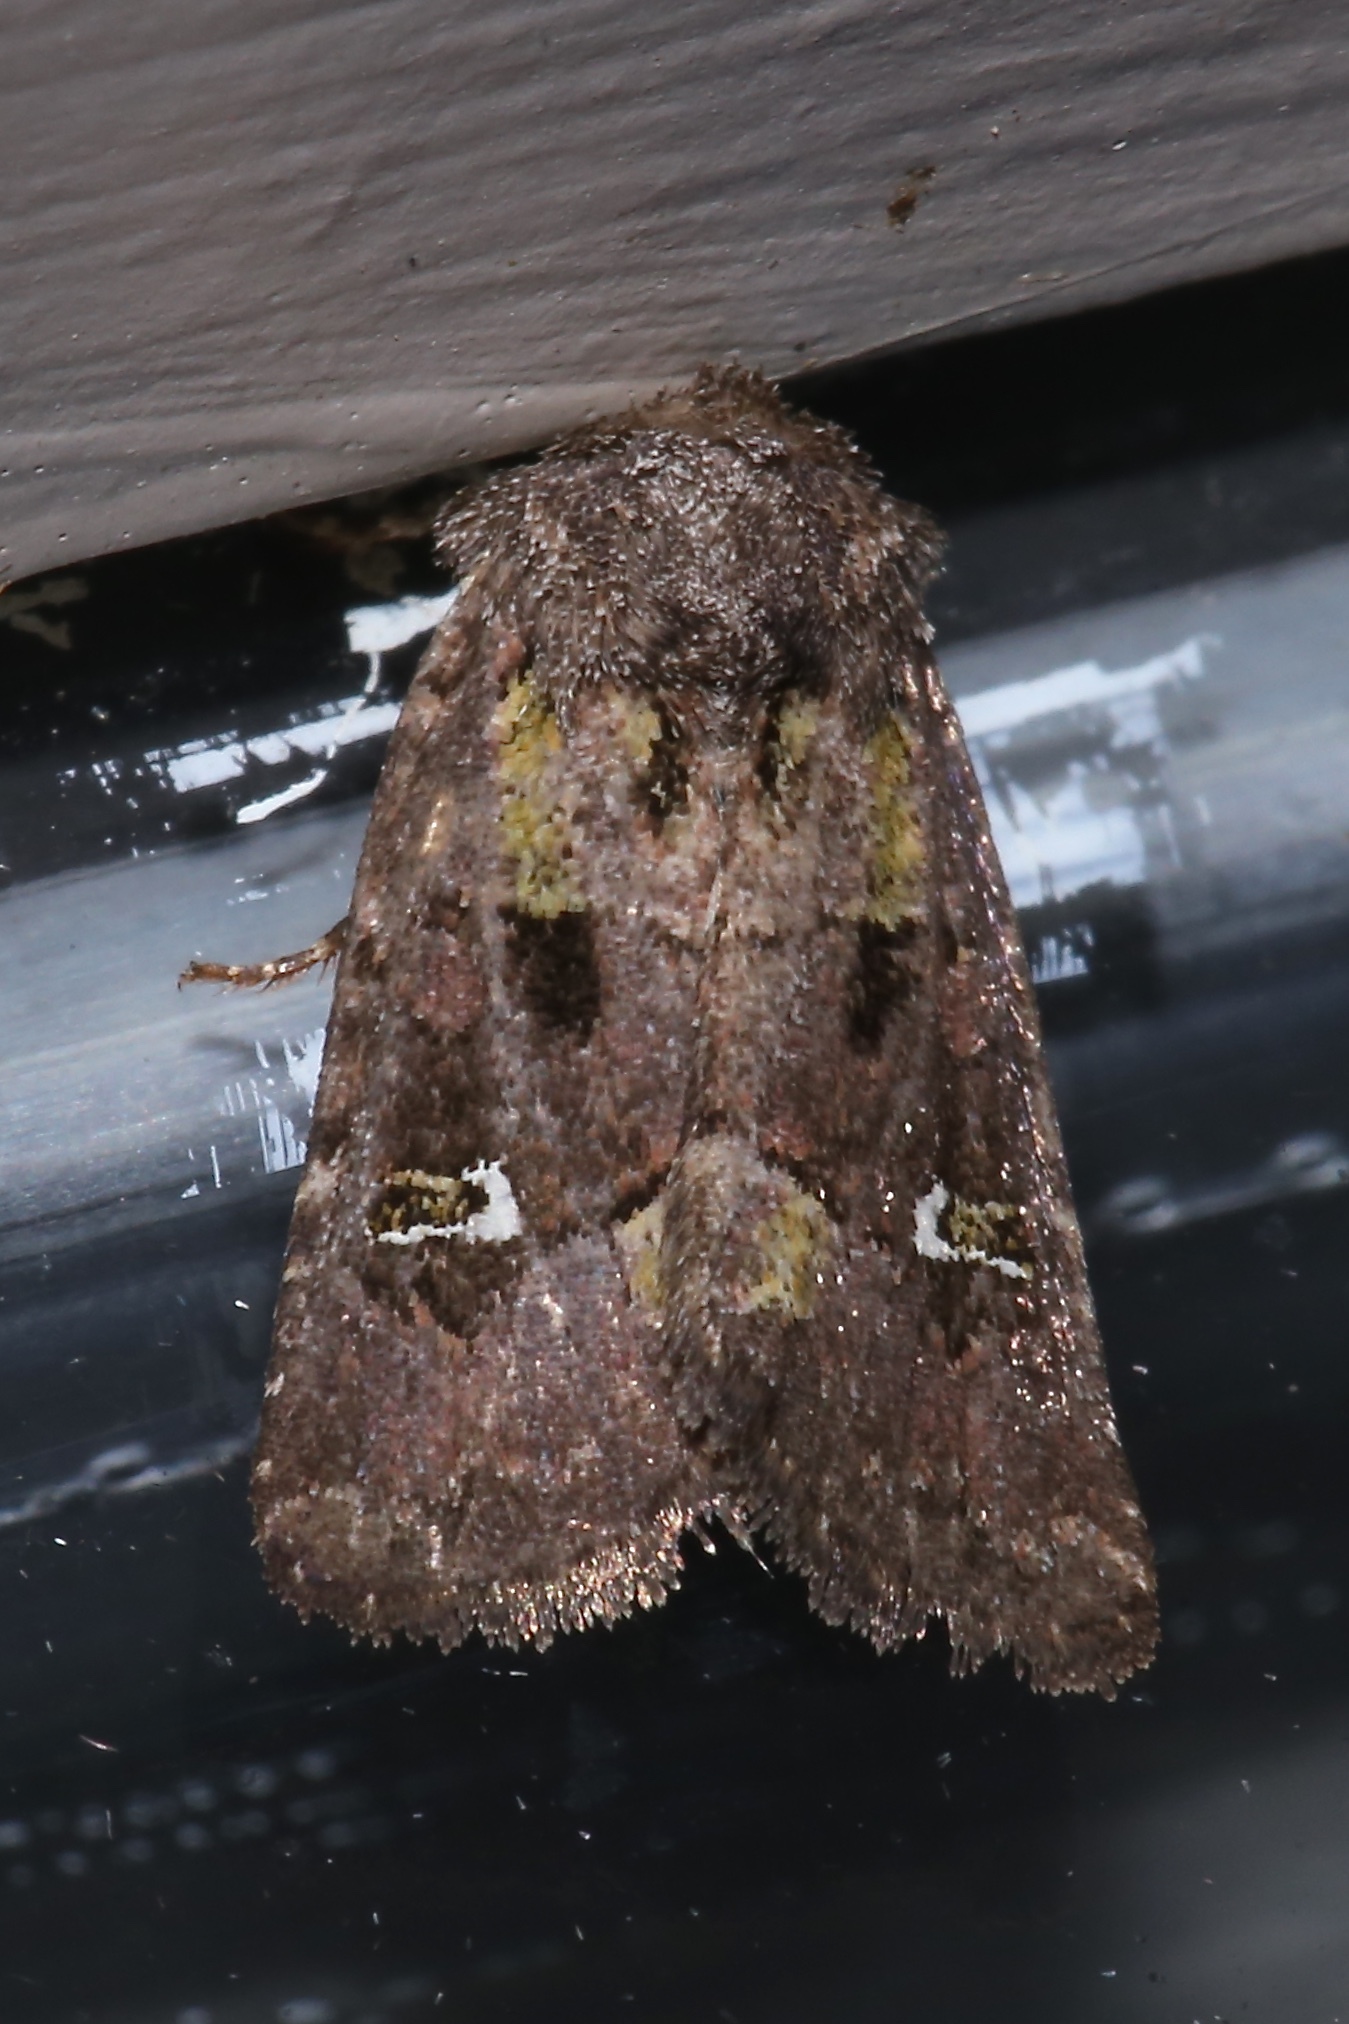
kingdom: Animalia
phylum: Arthropoda
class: Insecta
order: Lepidoptera
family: Noctuidae
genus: Lacinipolia
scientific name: Lacinipolia renigera
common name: Kidney-spotted minor
